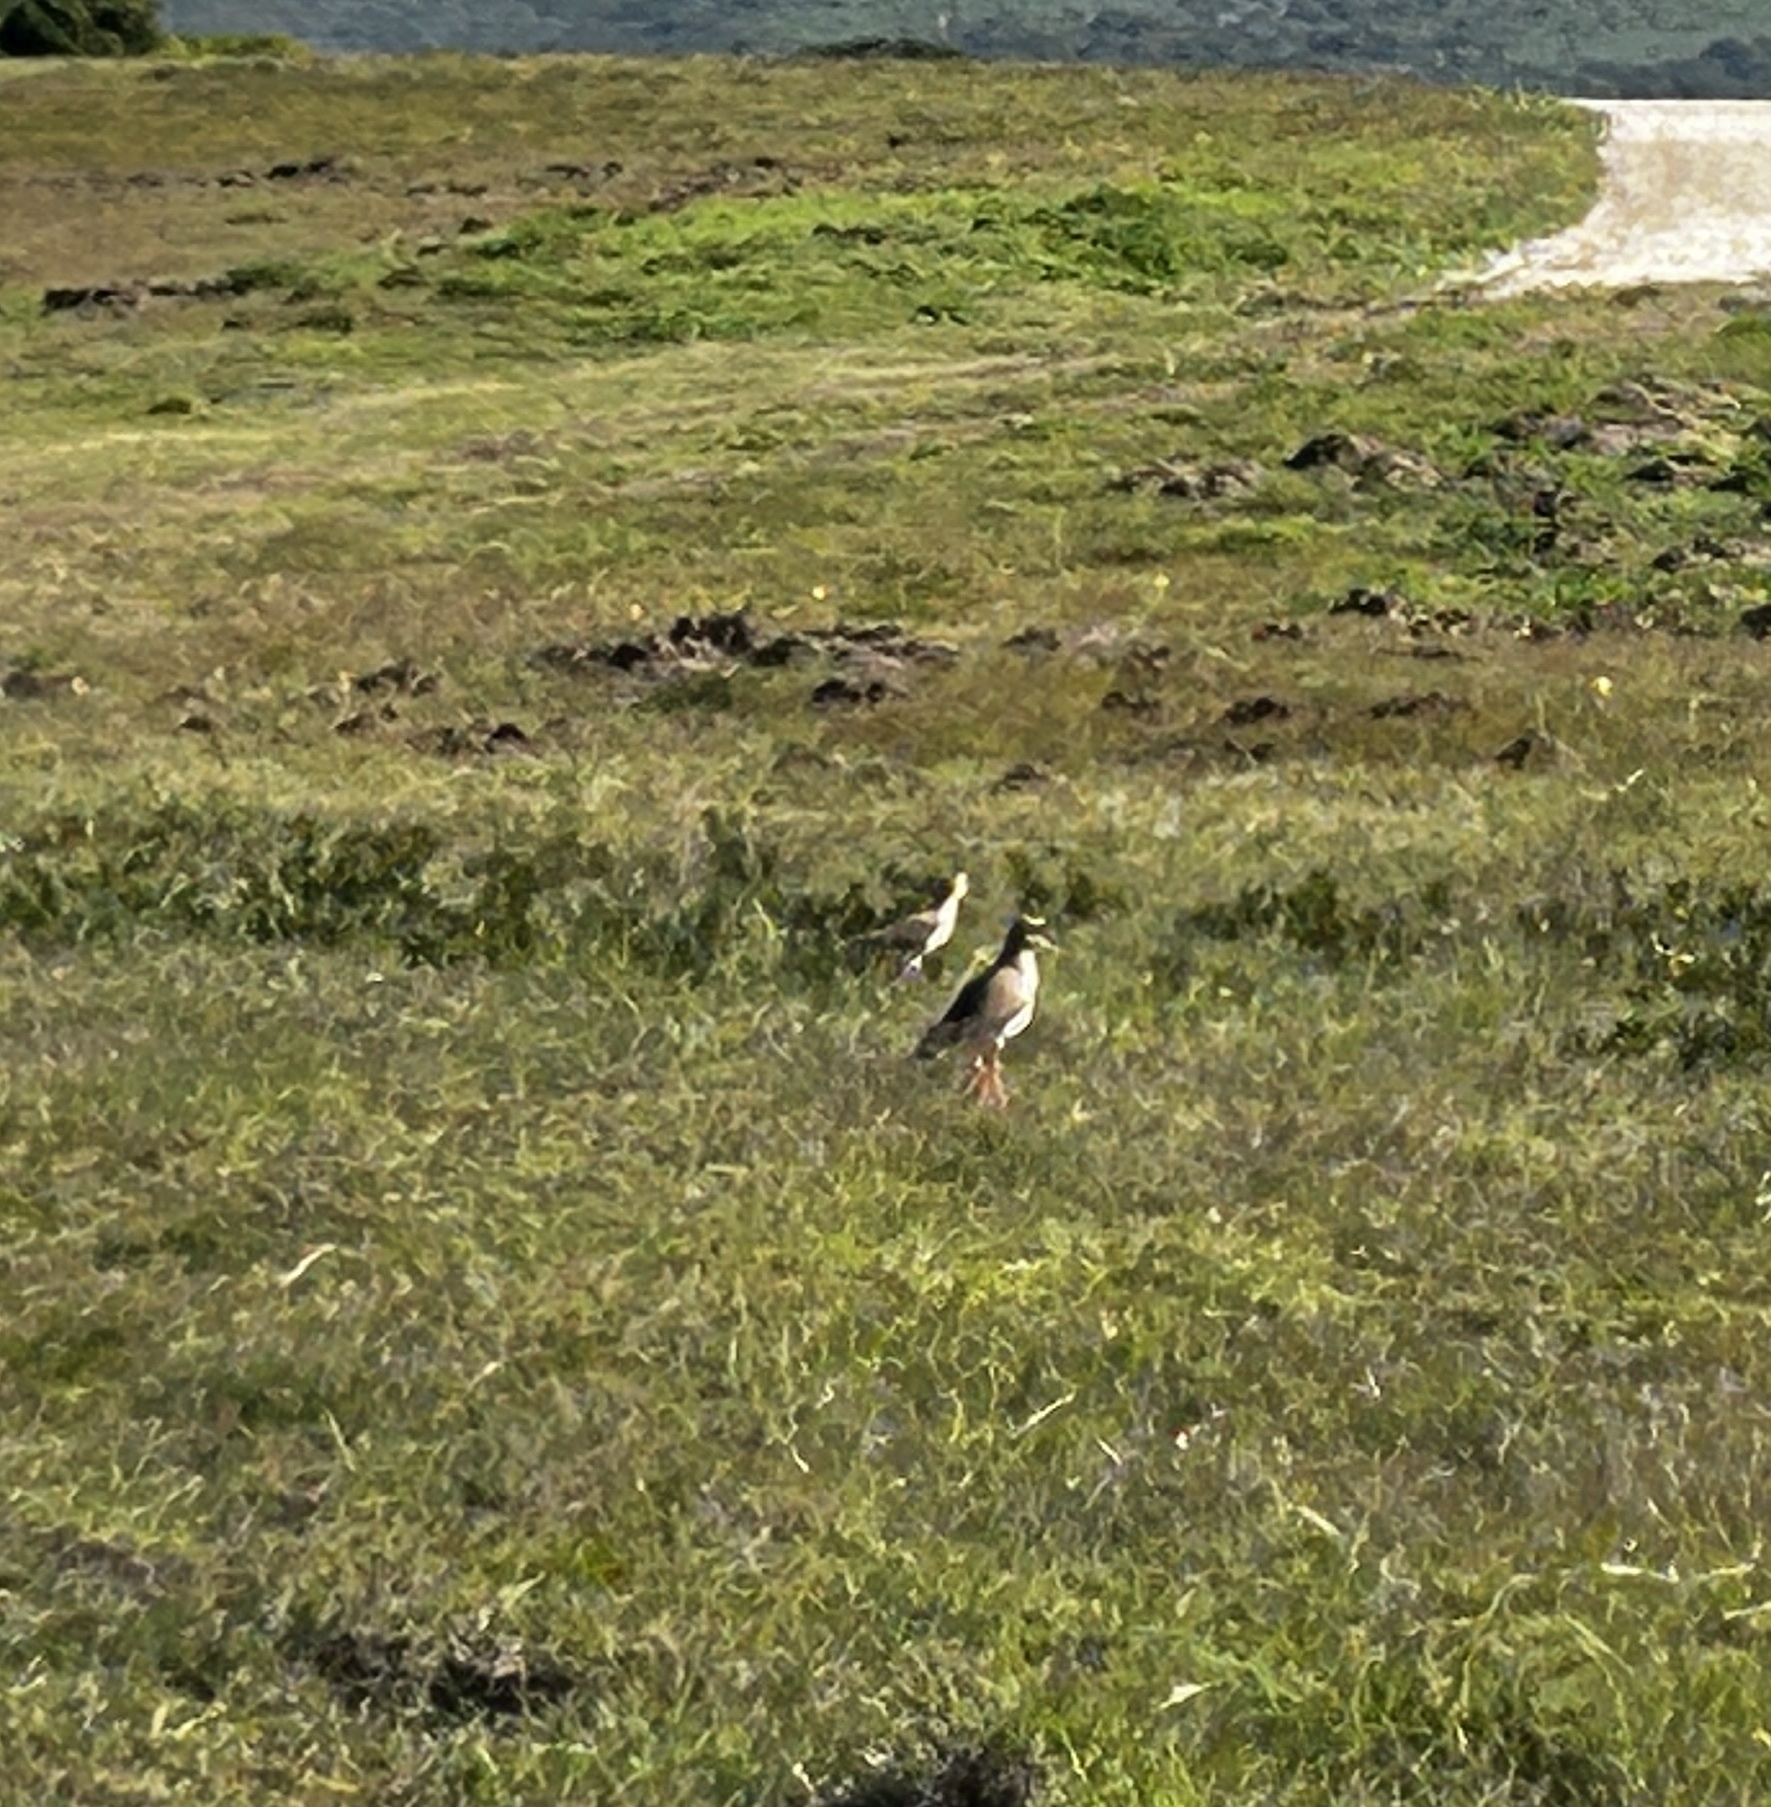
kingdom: Animalia
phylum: Chordata
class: Aves
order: Charadriiformes
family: Charadriidae
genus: Vanellus
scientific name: Vanellus coronatus
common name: Crowned lapwing
